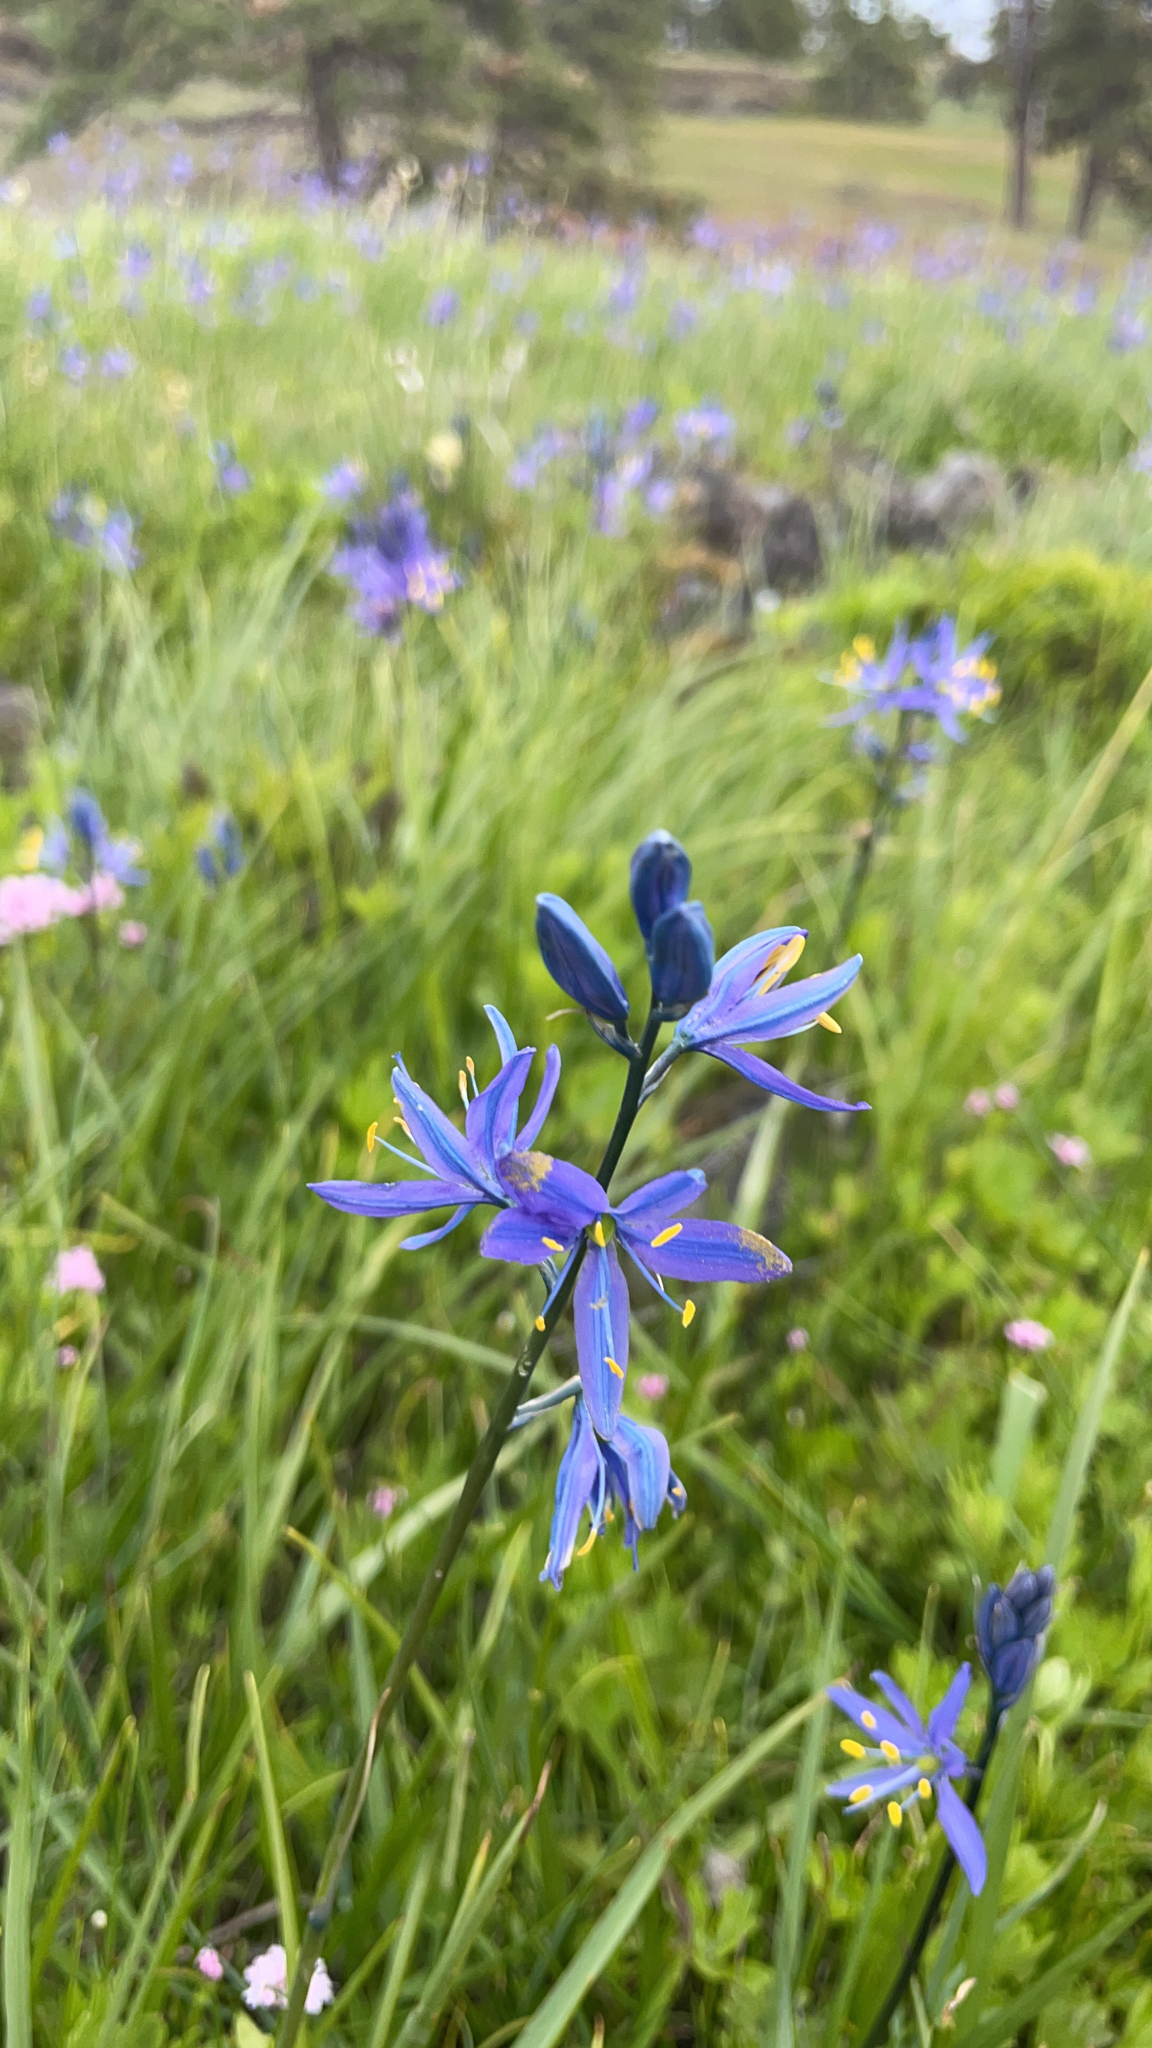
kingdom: Plantae
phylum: Tracheophyta
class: Liliopsida
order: Asparagales
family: Asparagaceae
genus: Camassia
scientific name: Camassia quamash
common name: Common camas
